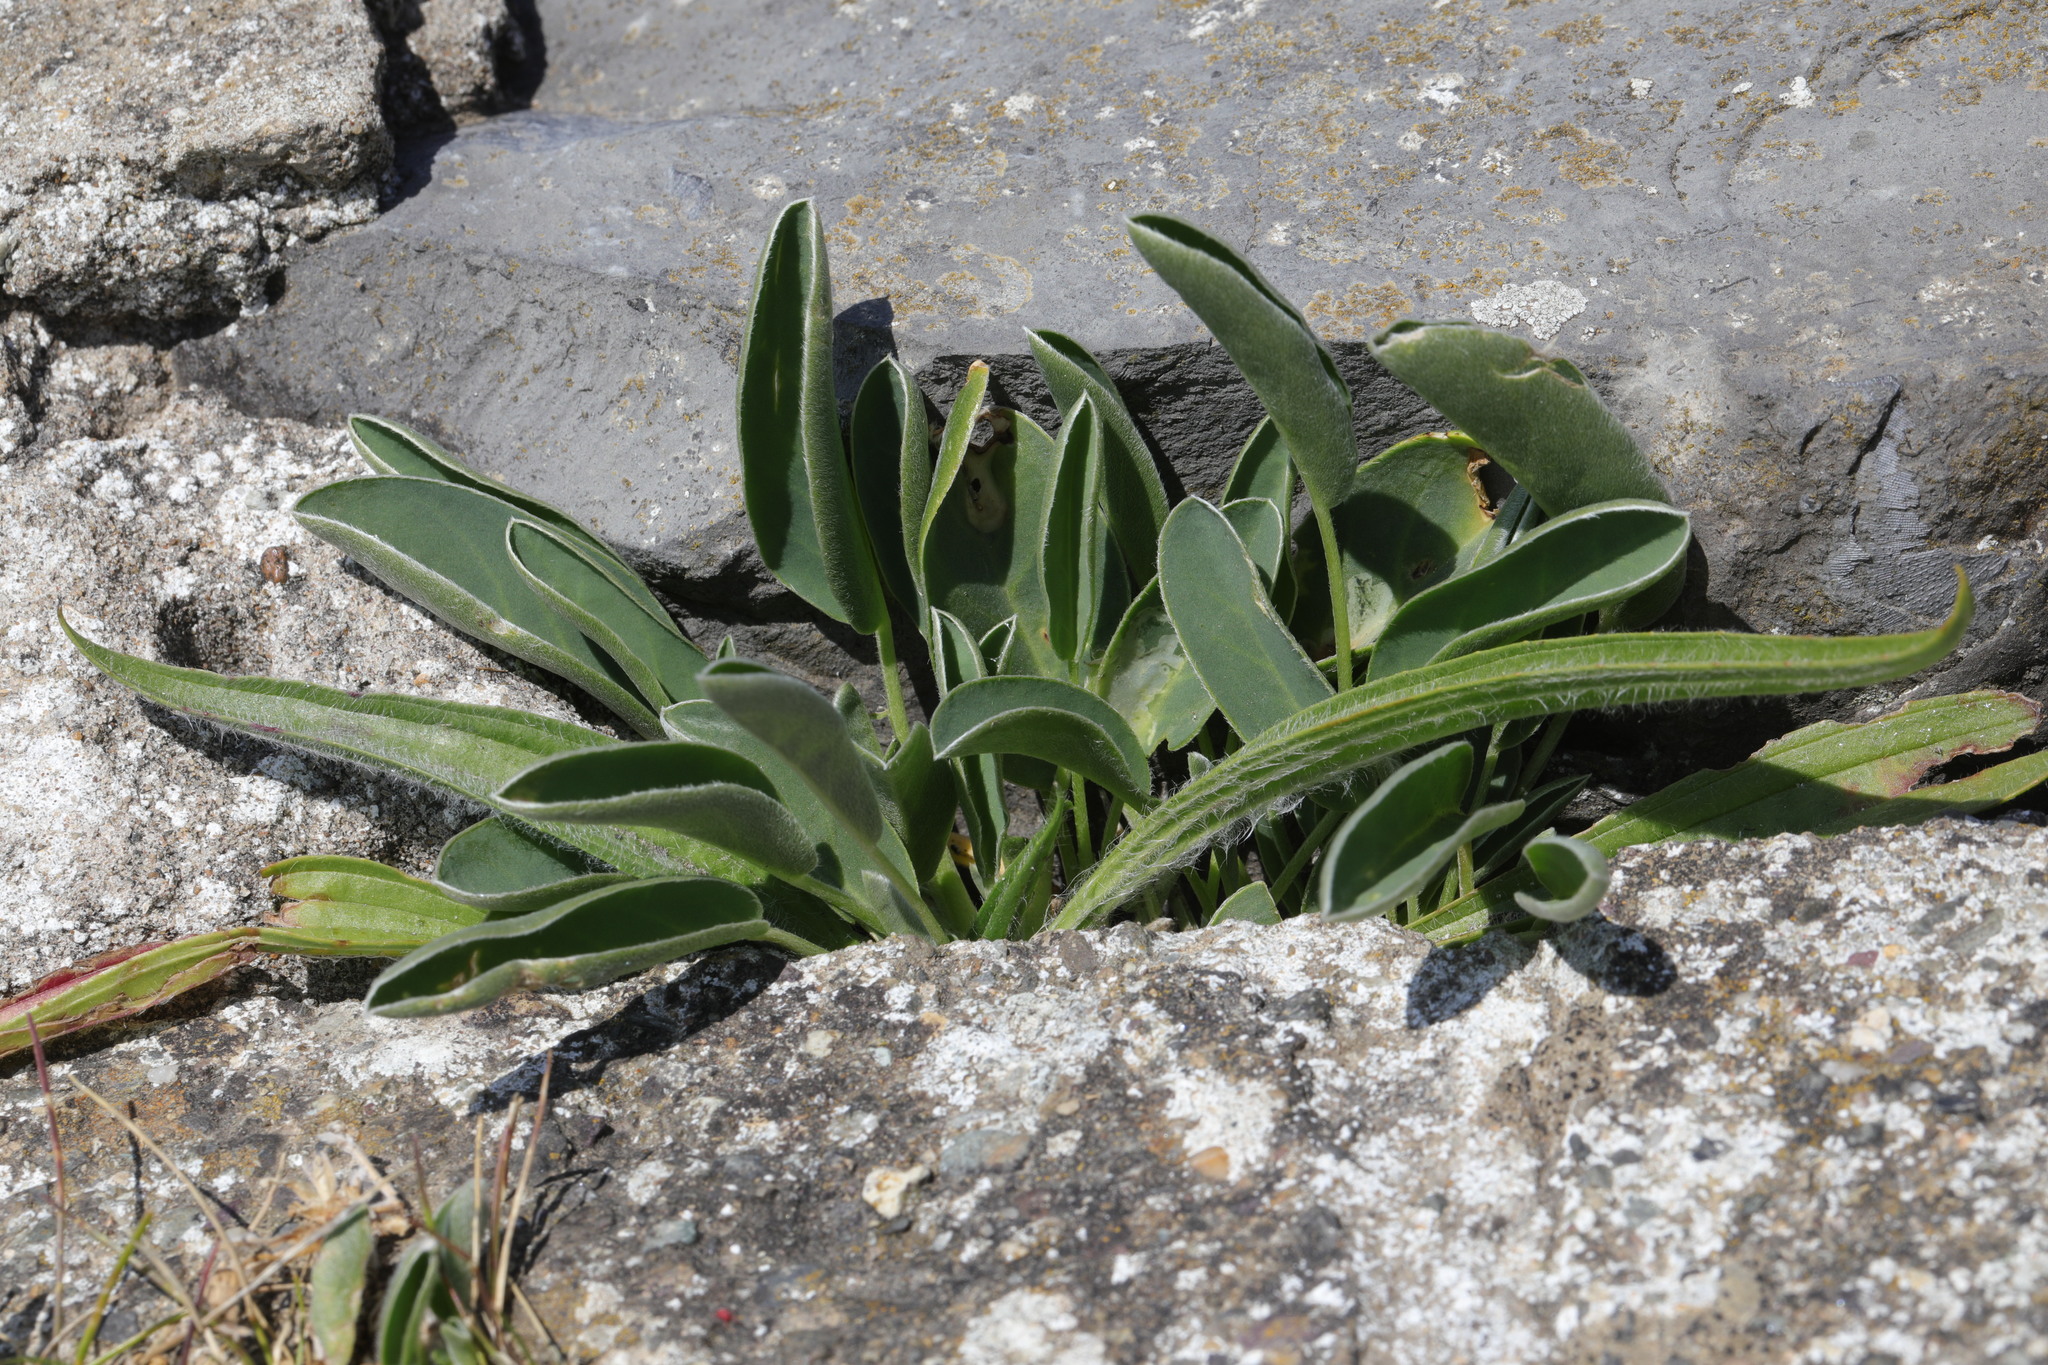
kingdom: Plantae
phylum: Tracheophyta
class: Magnoliopsida
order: Fabales
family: Fabaceae
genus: Anthyllis
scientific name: Anthyllis vulneraria
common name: Kidney vetch
